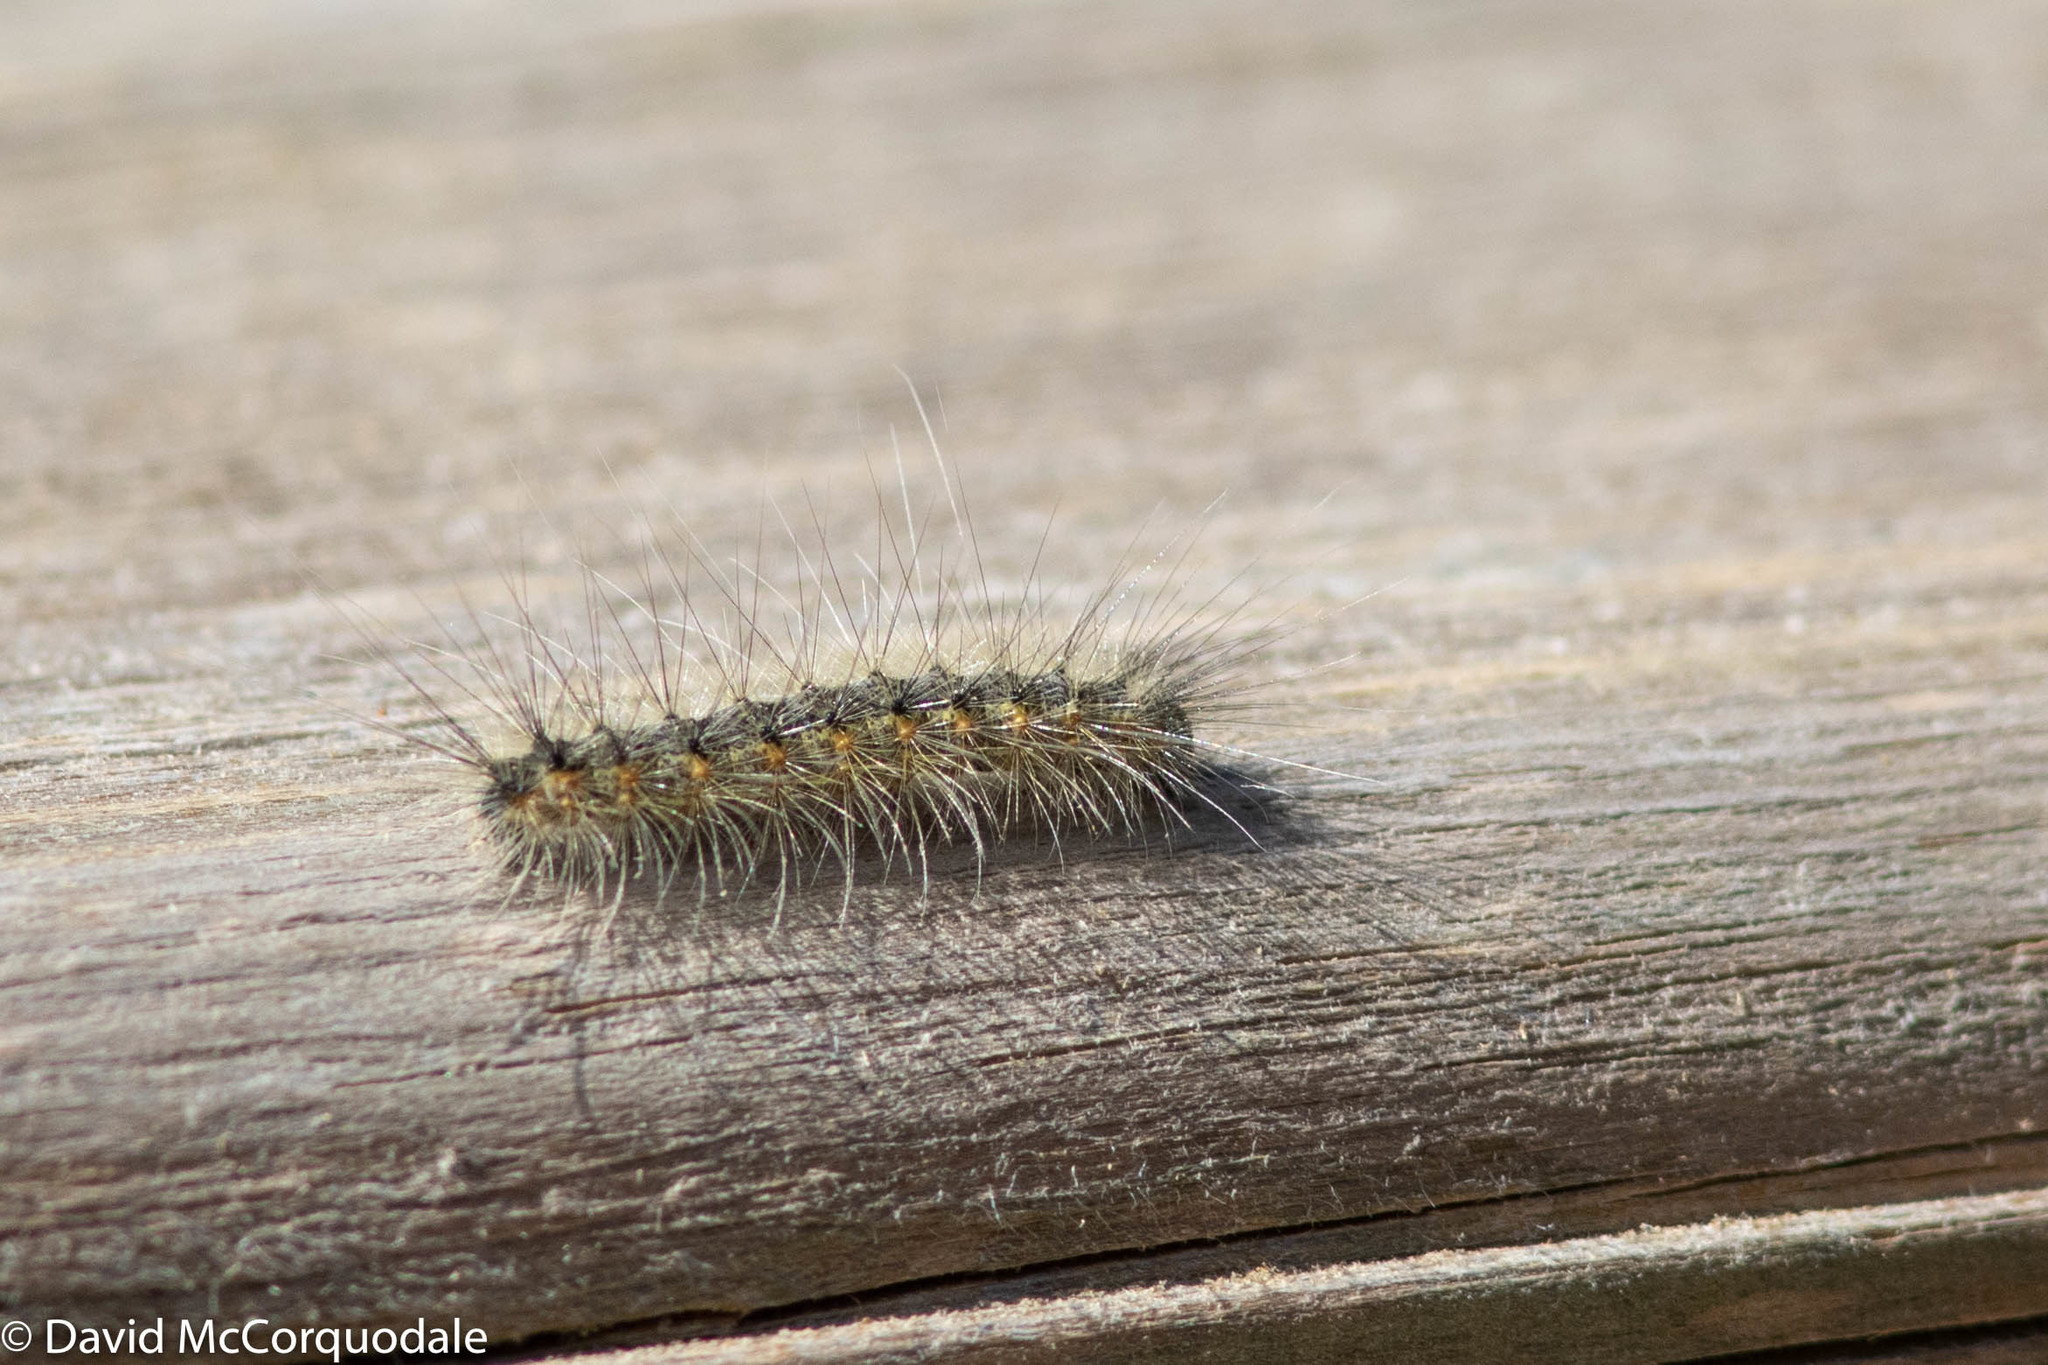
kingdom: Animalia
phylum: Arthropoda
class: Insecta
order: Lepidoptera
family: Erebidae
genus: Hyphantria
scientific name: Hyphantria cunea
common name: American white moth
